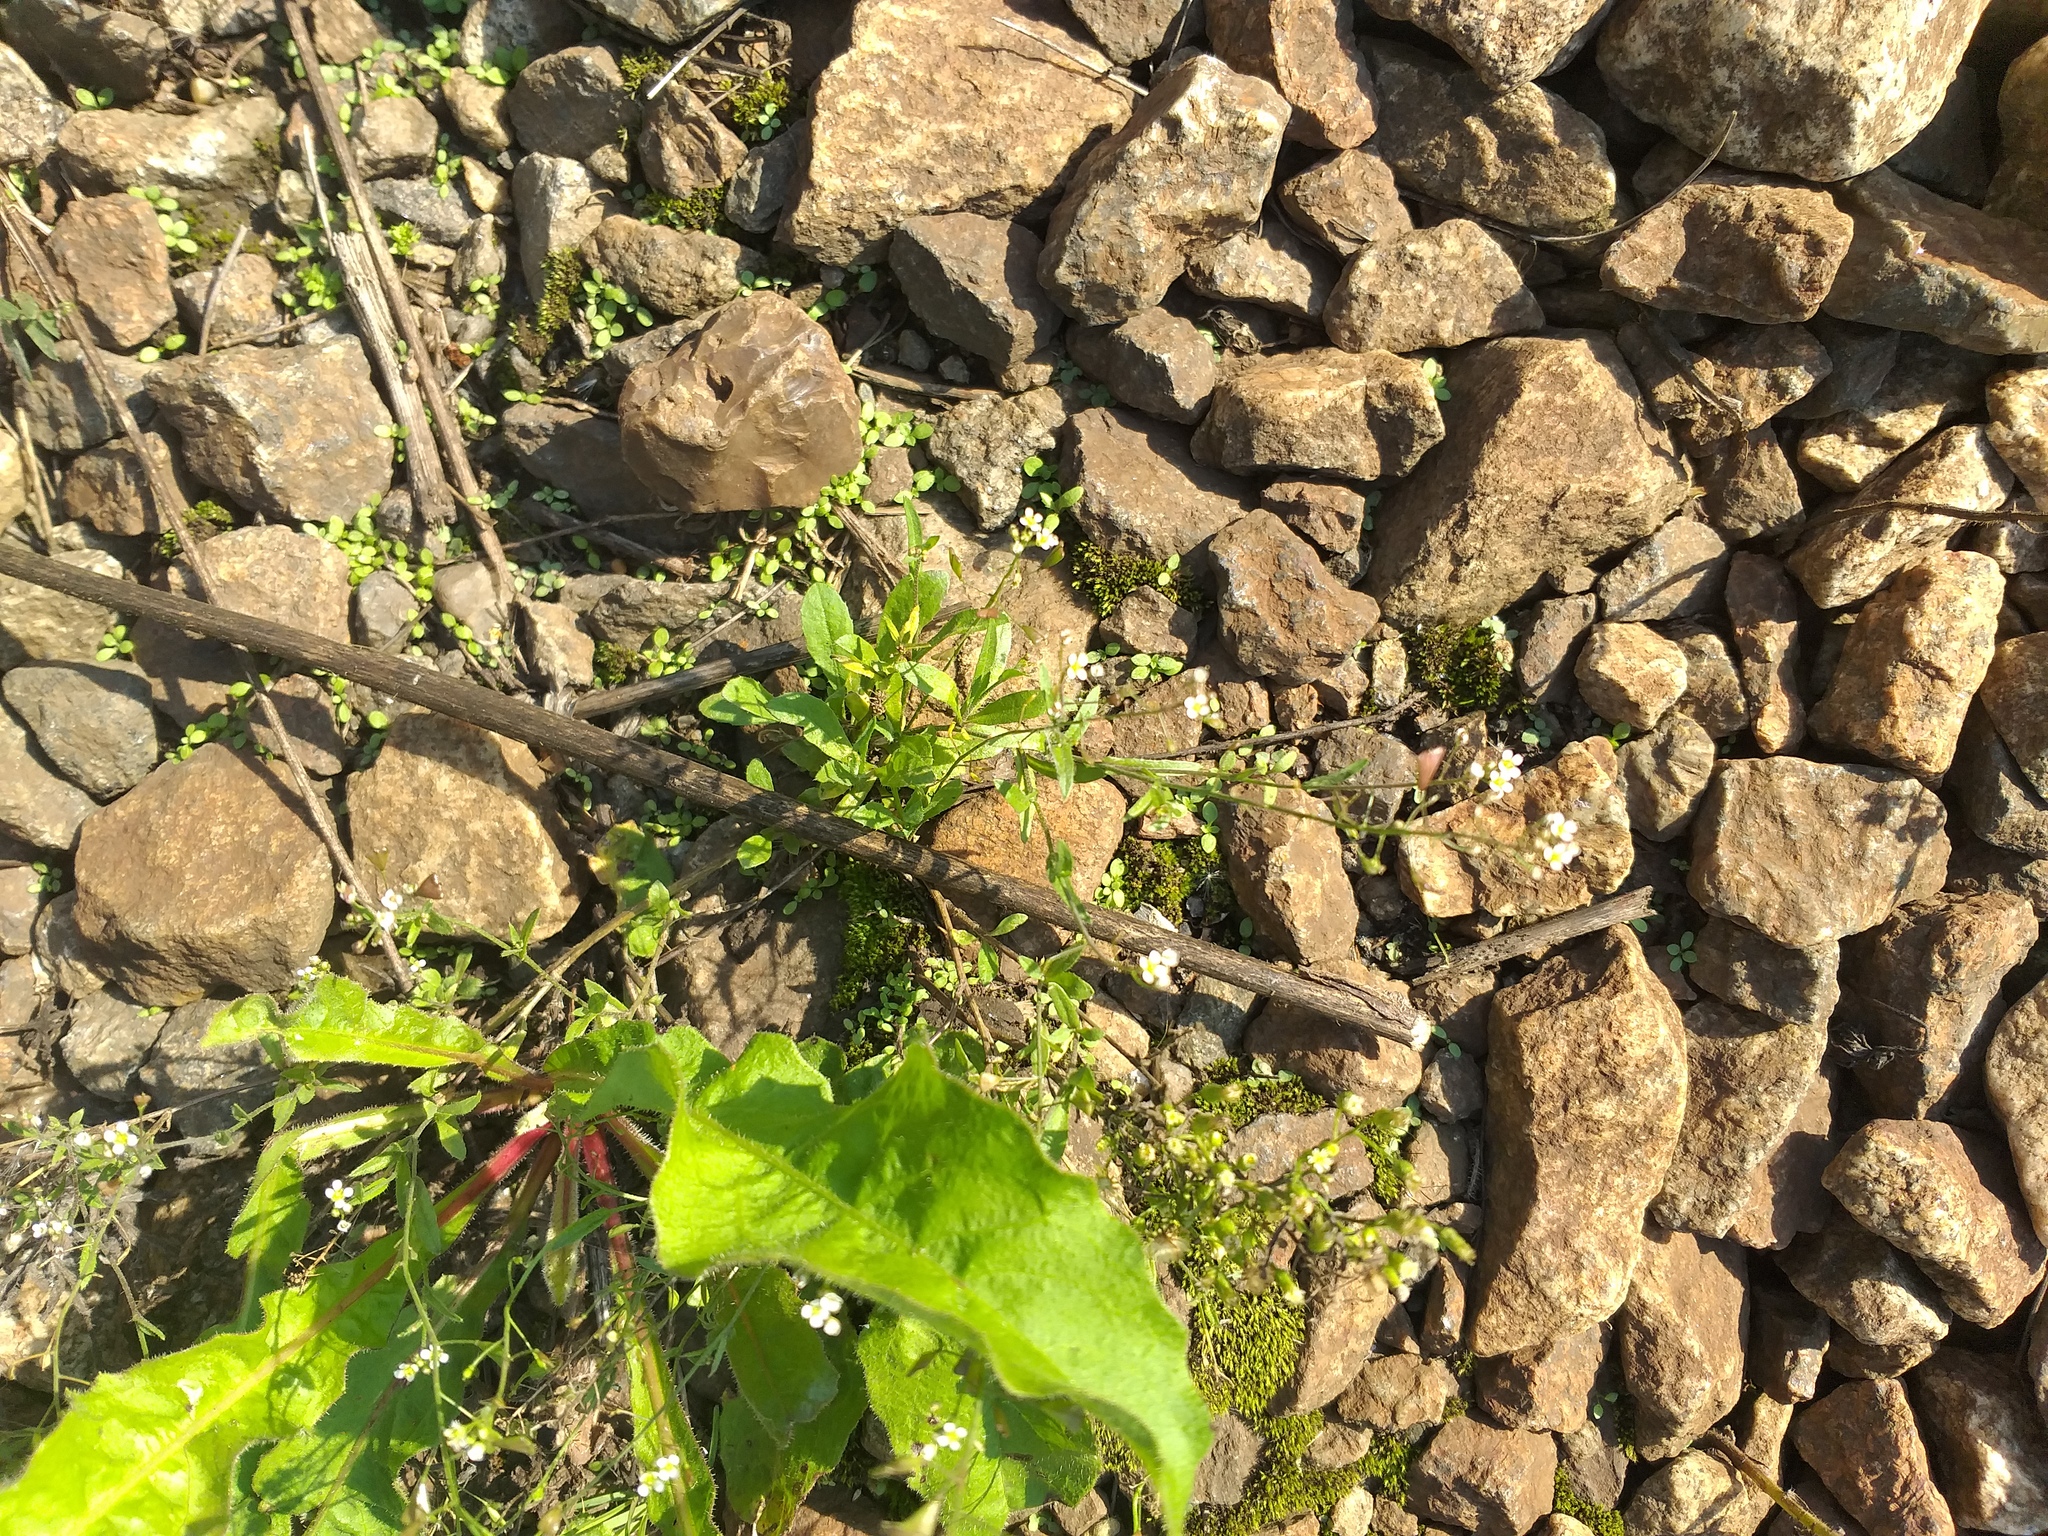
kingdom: Plantae
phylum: Tracheophyta
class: Magnoliopsida
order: Brassicales
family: Brassicaceae
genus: Capsella
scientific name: Capsella bursa-pastoris
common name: Shepherd's purse
